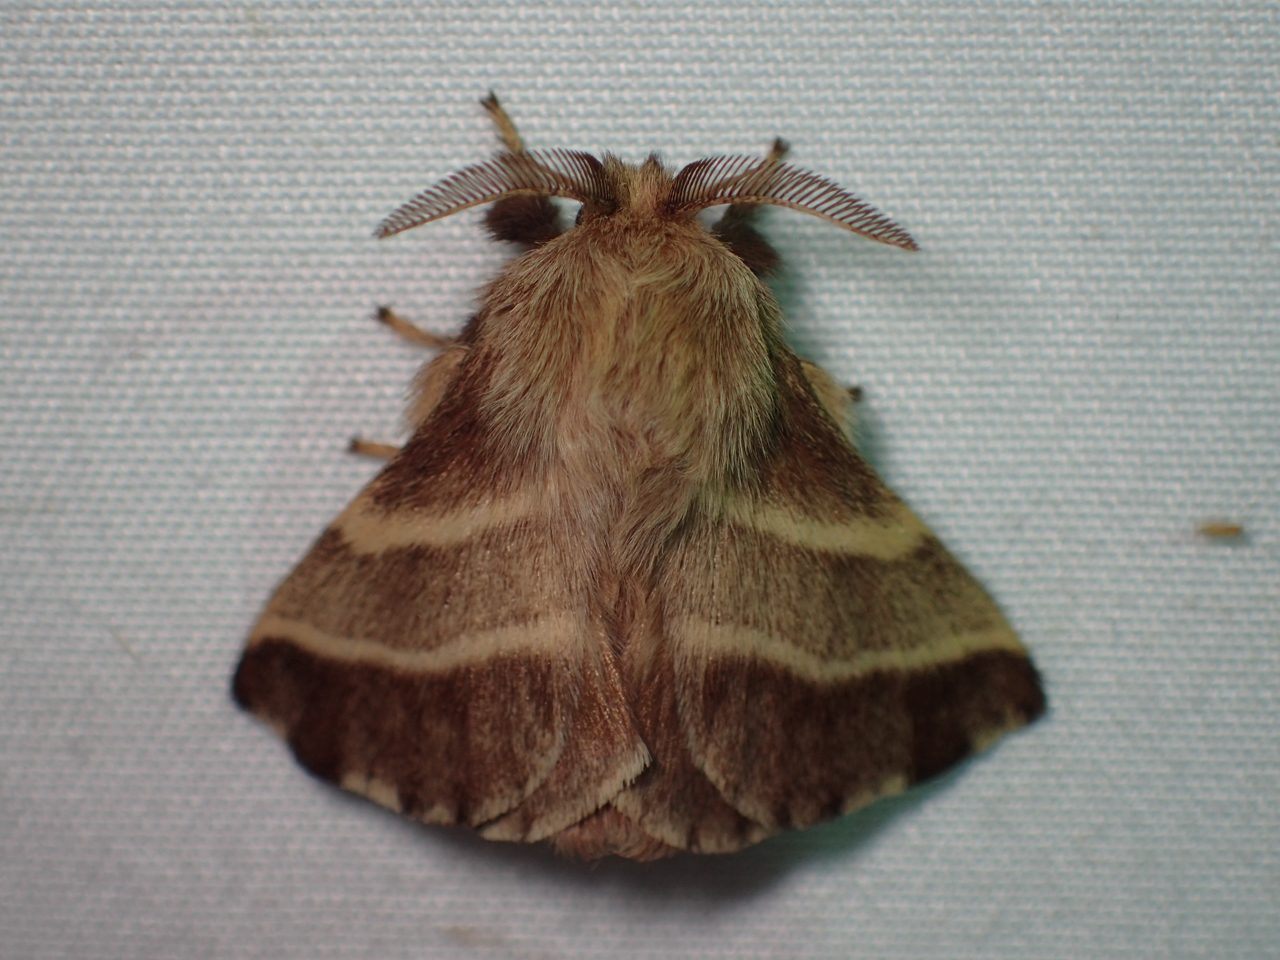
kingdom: Animalia
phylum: Arthropoda
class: Insecta
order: Lepidoptera
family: Lasiocampidae
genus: Malacosoma
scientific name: Malacosoma americana
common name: Eastern tent caterpillar moth
